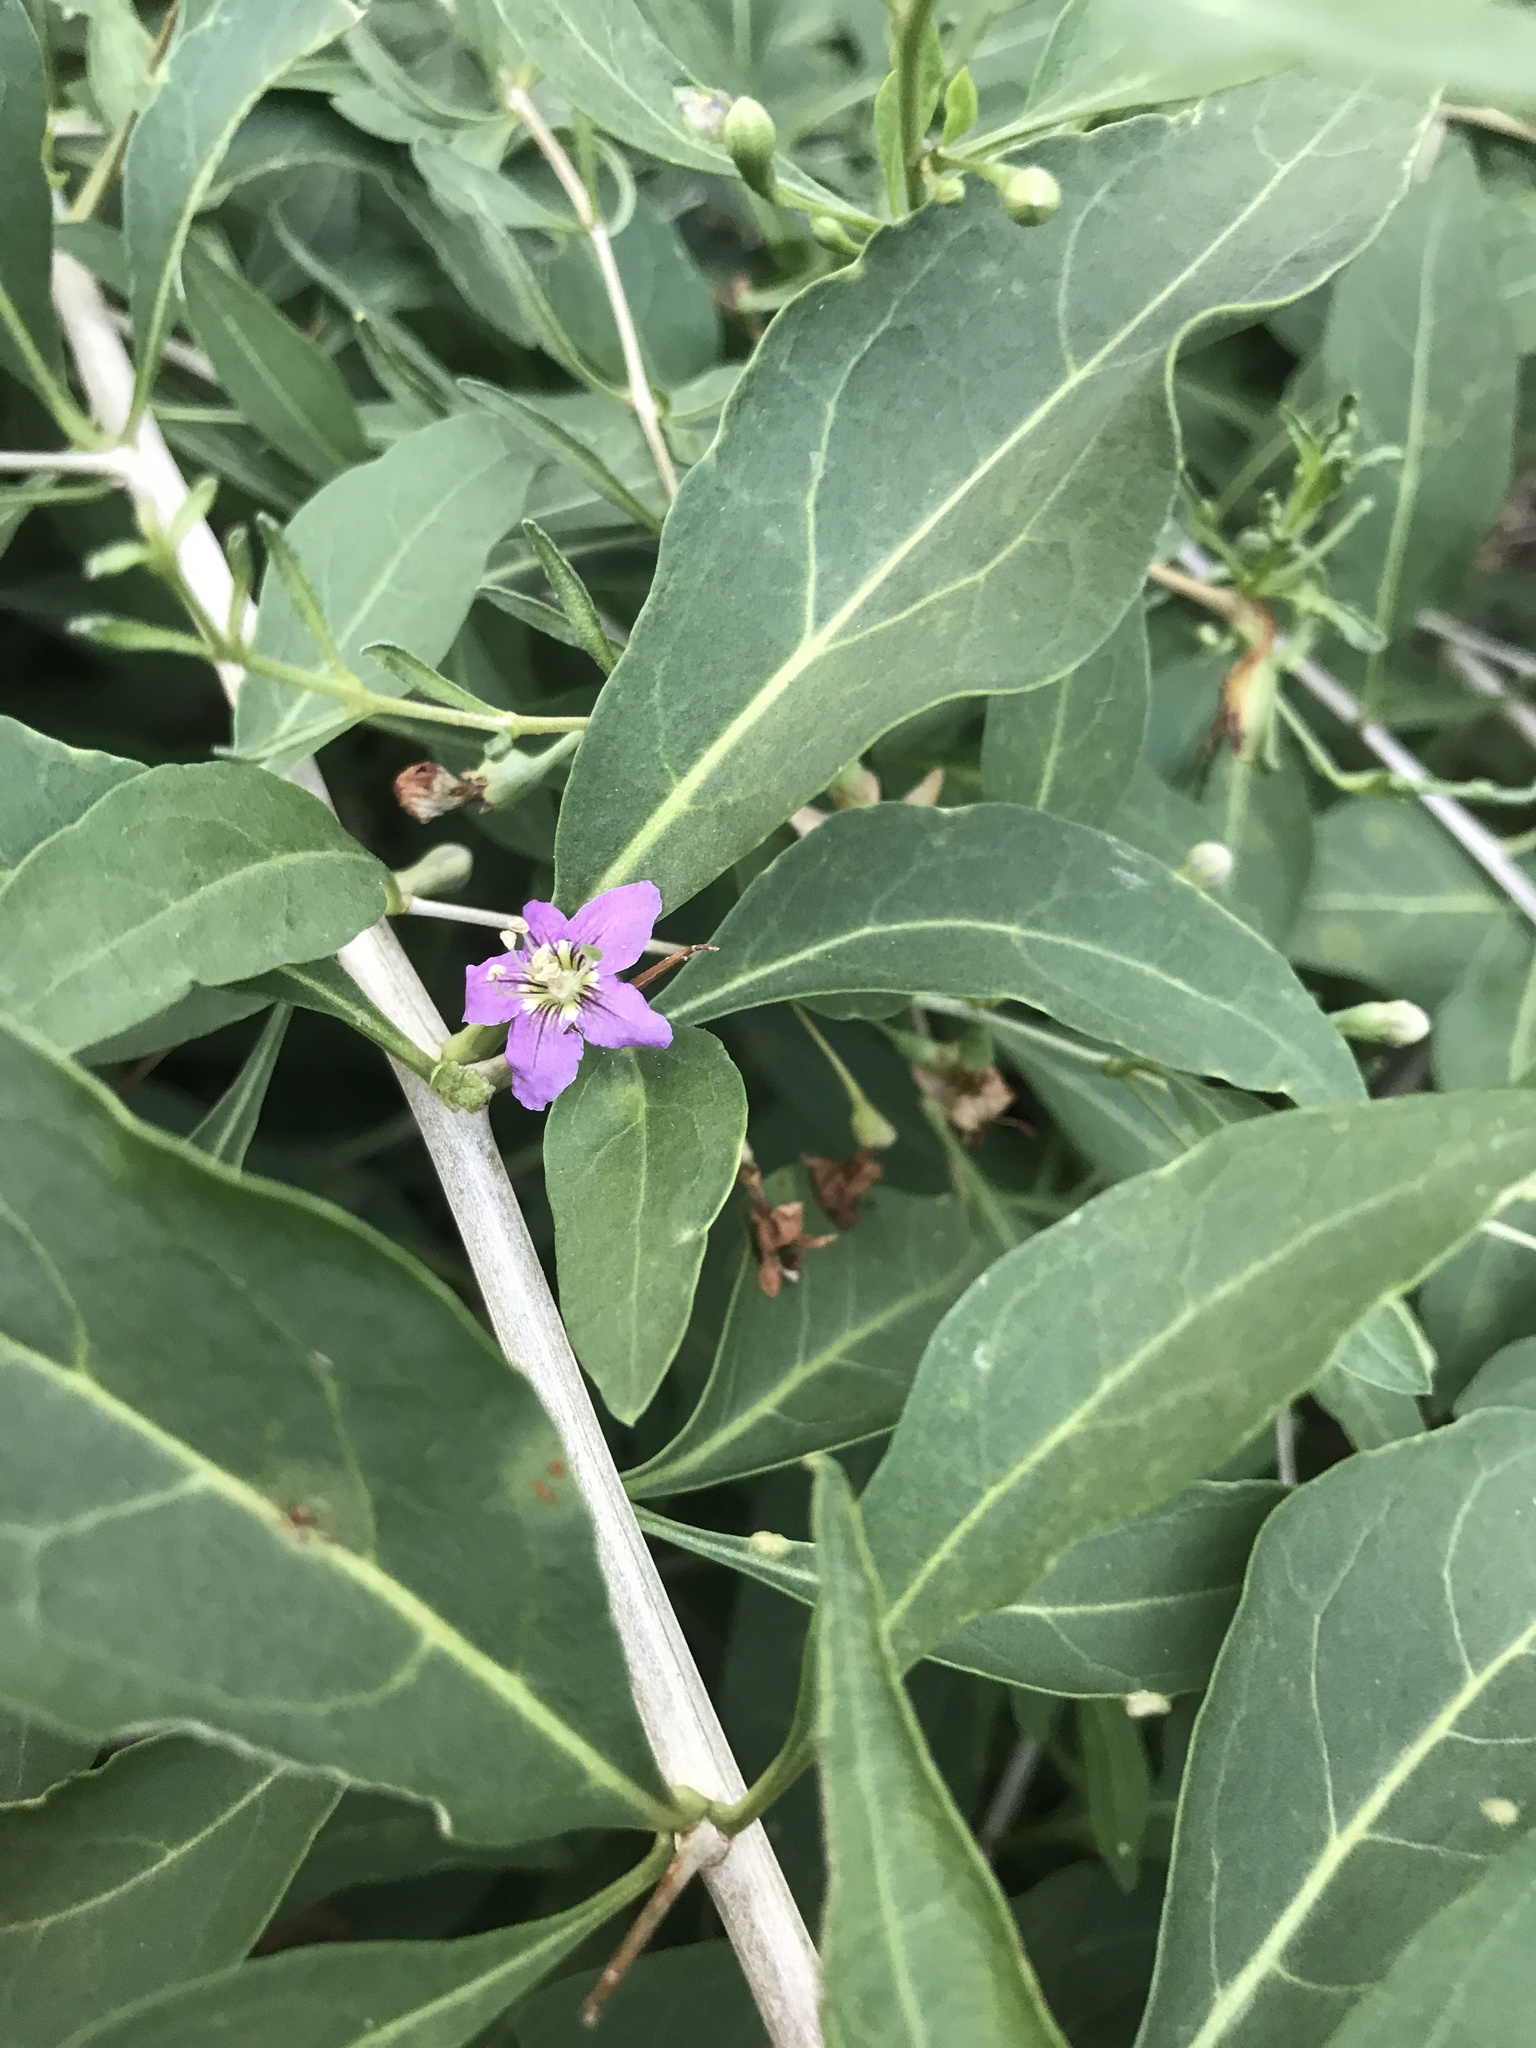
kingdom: Plantae
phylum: Tracheophyta
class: Magnoliopsida
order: Solanales
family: Solanaceae
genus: Lycium
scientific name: Lycium barbarum
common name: Duke of argyll's teaplant
